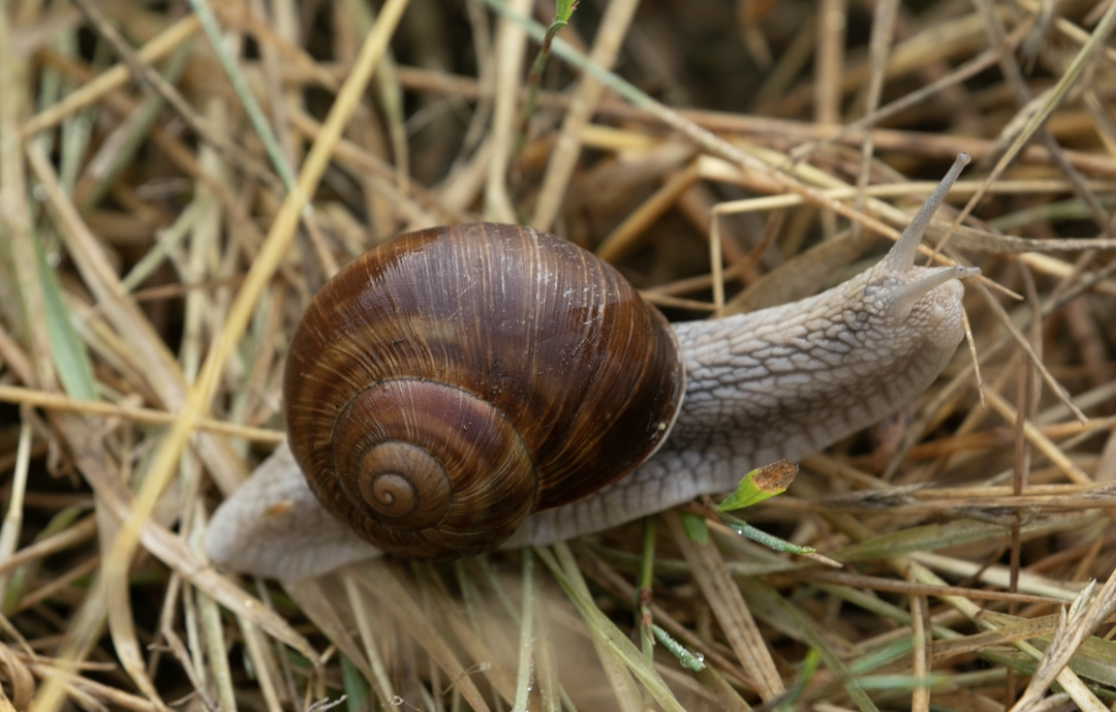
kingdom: Animalia
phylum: Mollusca
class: Gastropoda
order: Stylommatophora
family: Helicidae
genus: Helix
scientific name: Helix pomatia
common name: Roman snail
